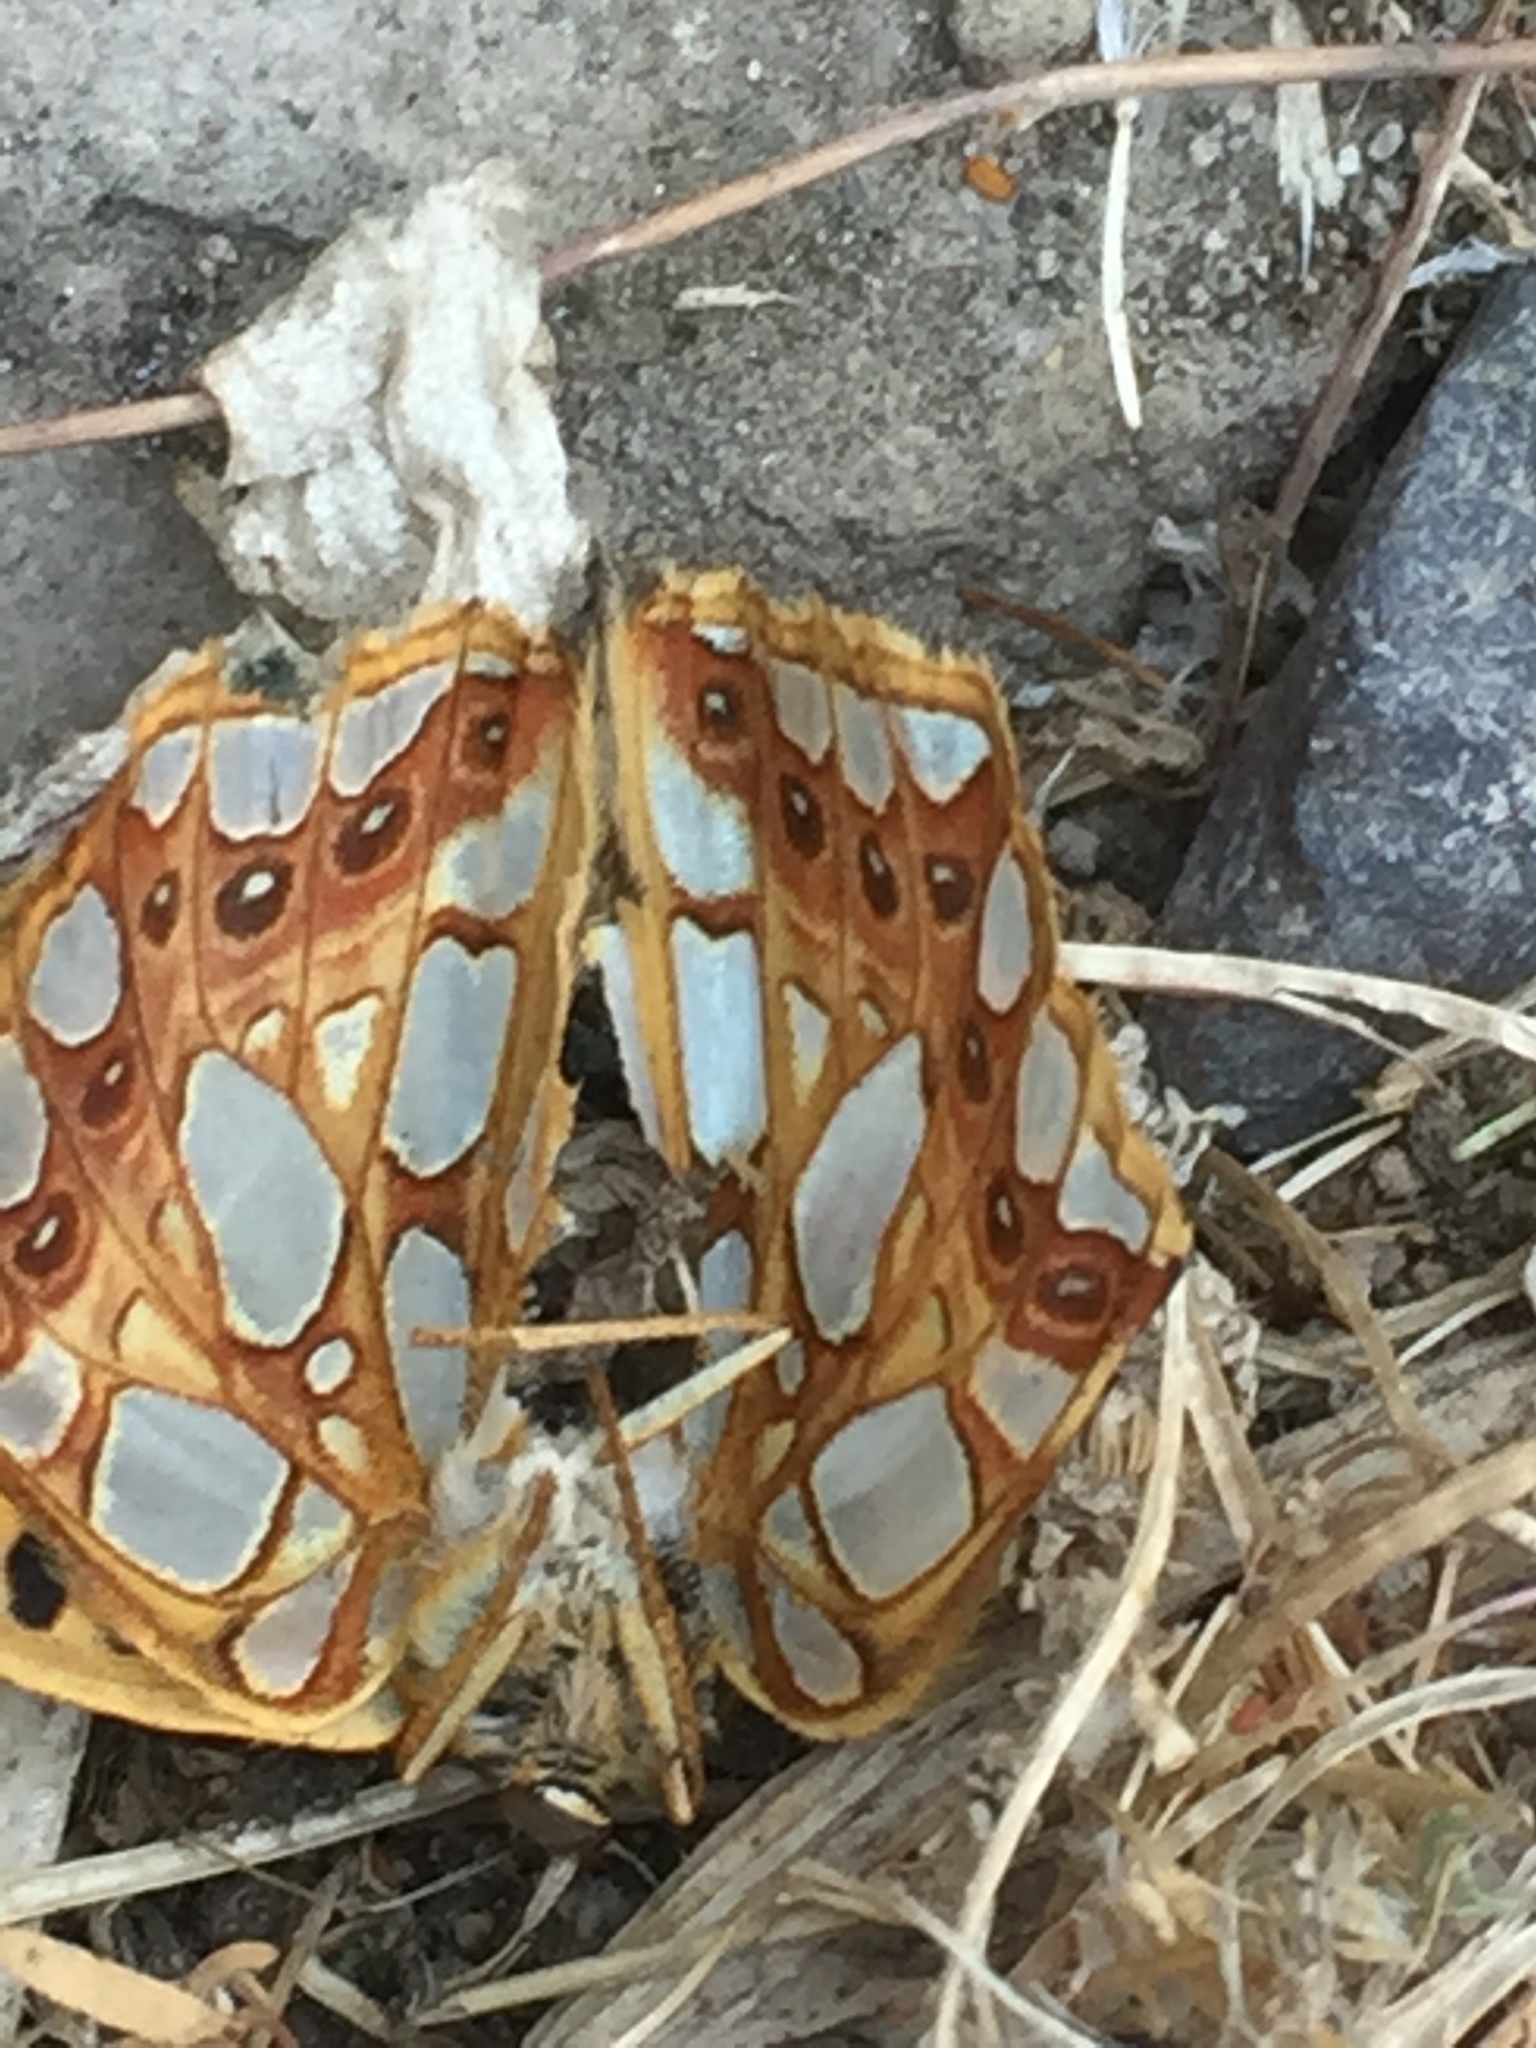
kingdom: Animalia
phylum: Arthropoda
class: Insecta
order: Lepidoptera
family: Nymphalidae
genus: Issoria
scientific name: Issoria lathonia
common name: Queen of spain fritillary
